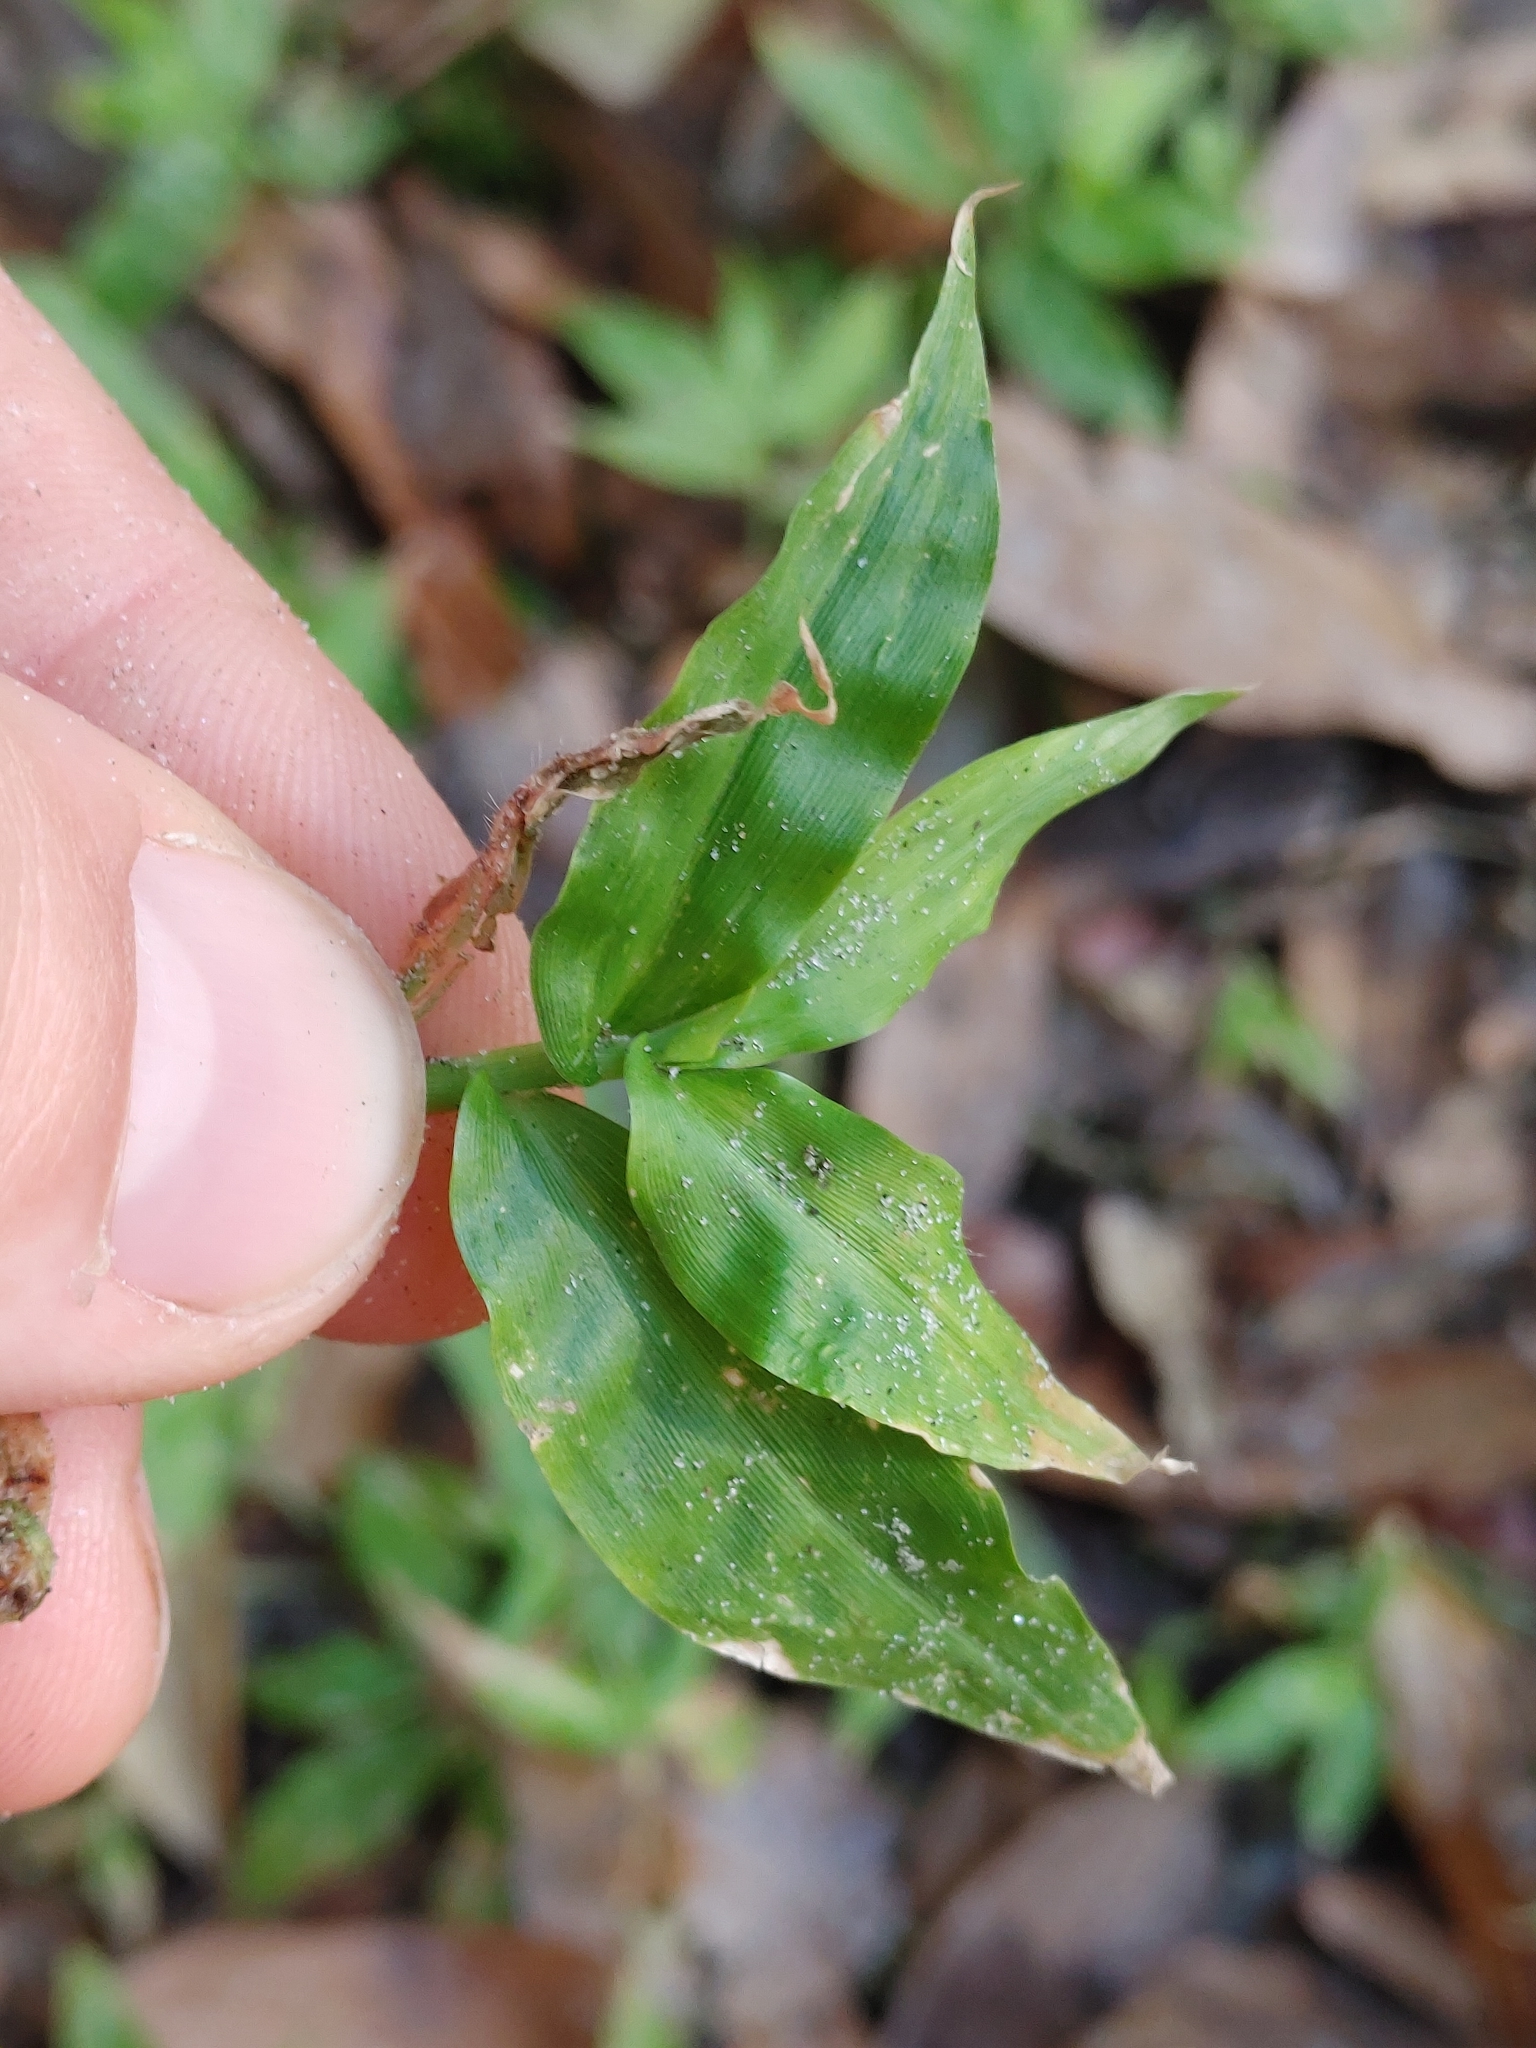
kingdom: Plantae
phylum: Tracheophyta
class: Liliopsida
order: Poales
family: Poaceae
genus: Oplismenus
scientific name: Oplismenus compositus
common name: Running mountain grass
